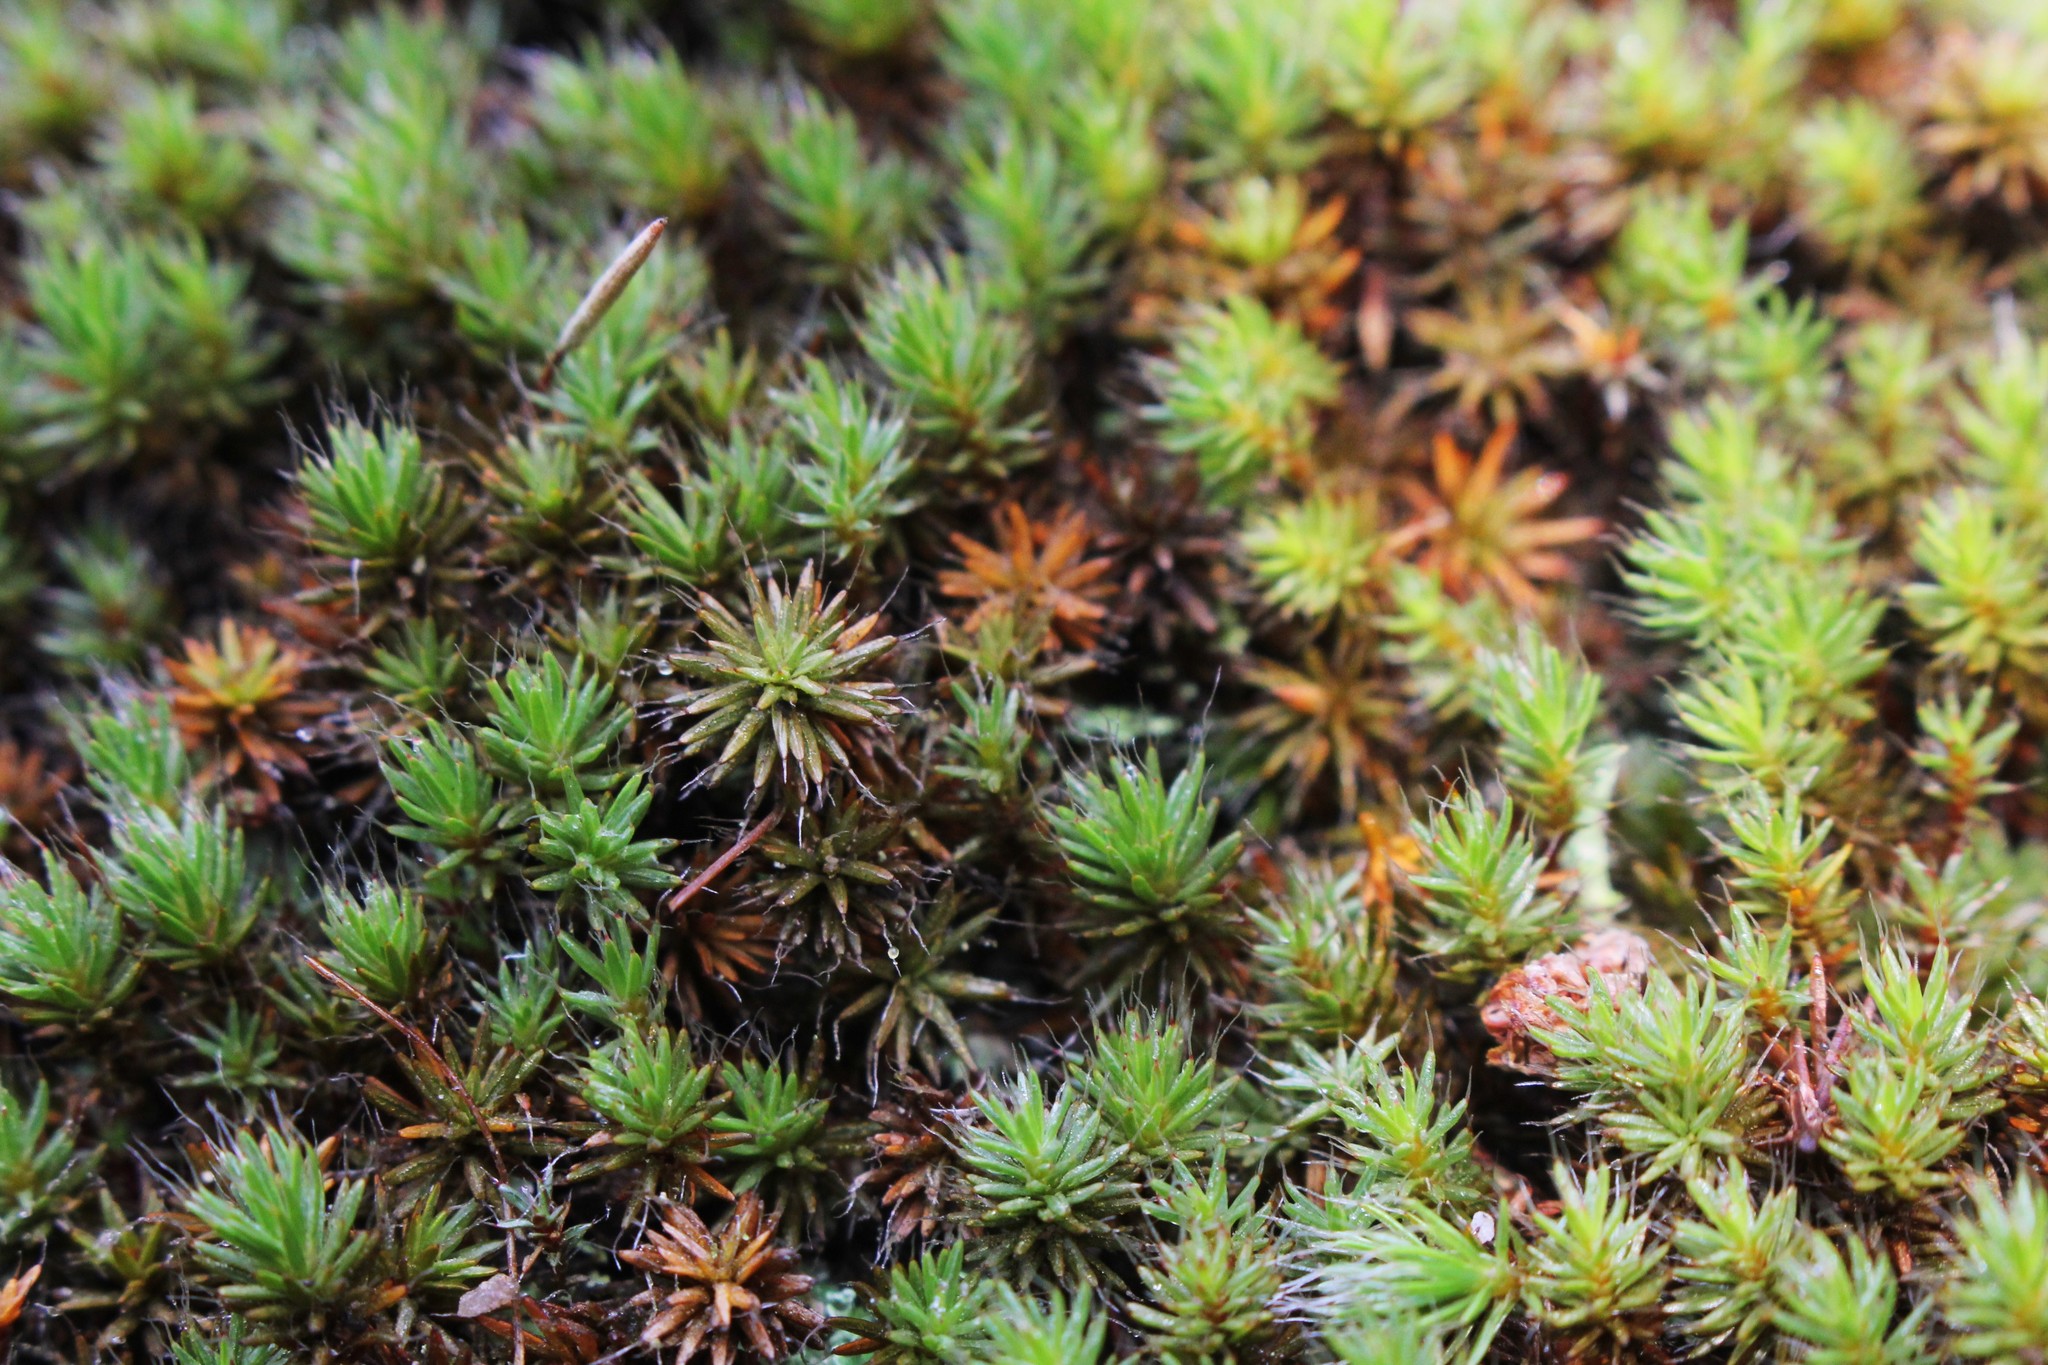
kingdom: Plantae
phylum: Bryophyta
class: Polytrichopsida
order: Polytrichales
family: Polytrichaceae
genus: Polytrichum
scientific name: Polytrichum piliferum
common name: Bristly haircap
